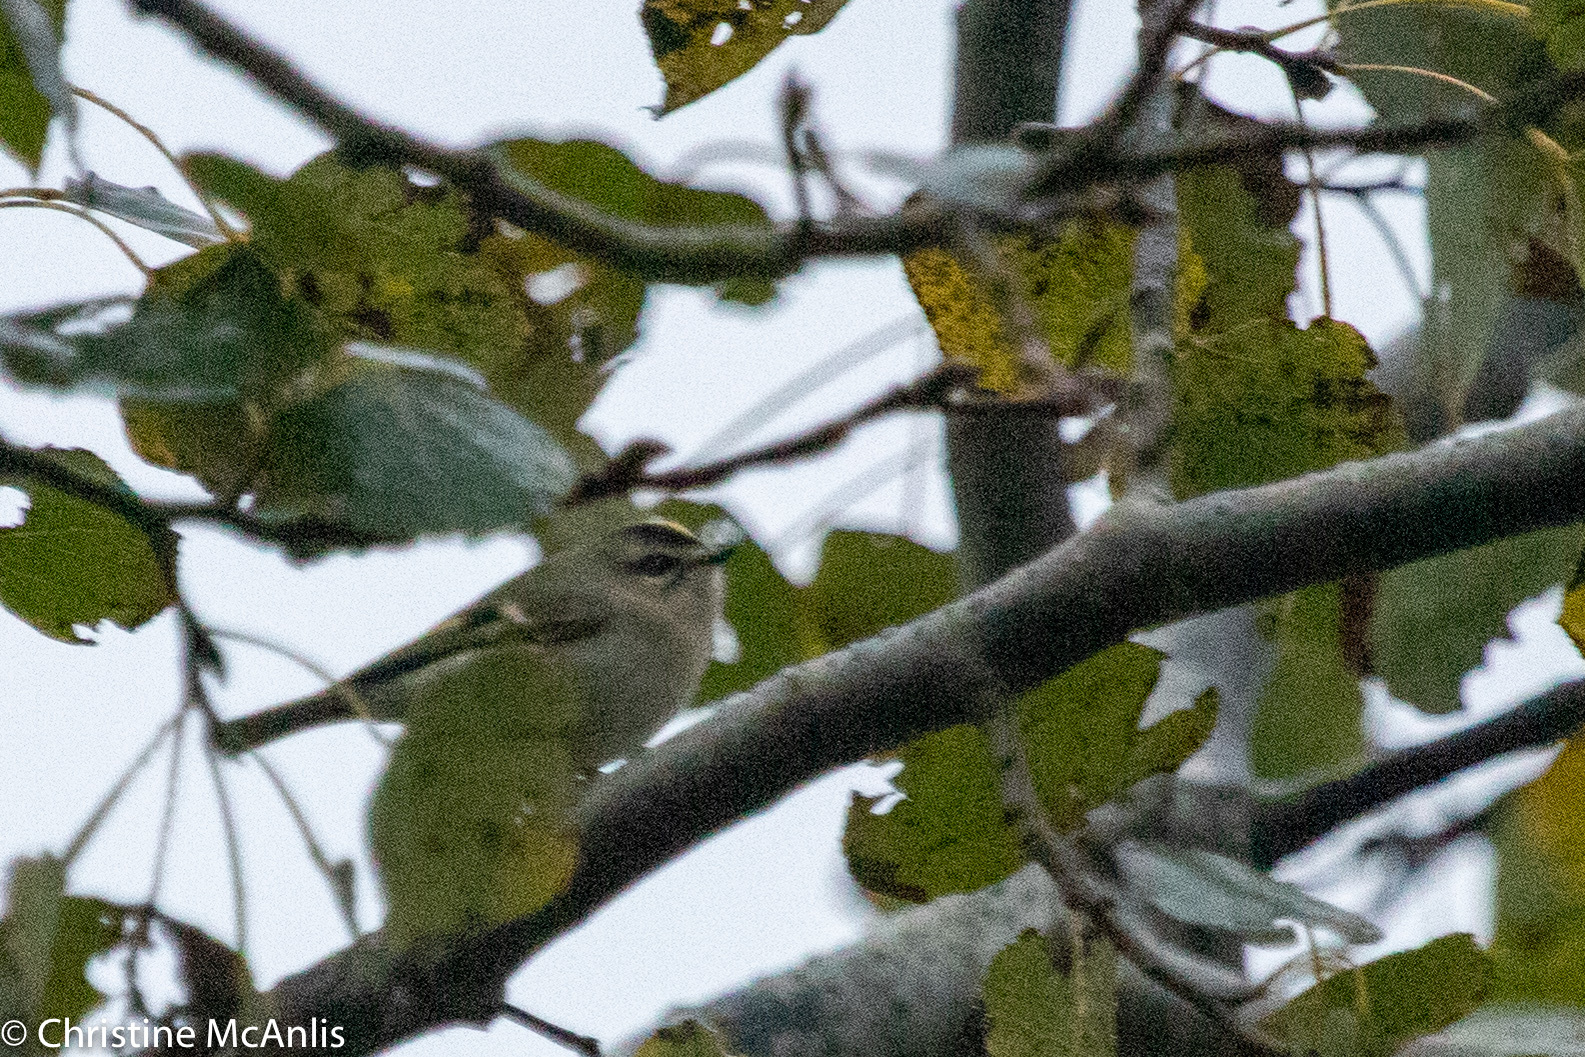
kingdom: Animalia
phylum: Chordata
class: Aves
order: Passeriformes
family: Regulidae
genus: Regulus
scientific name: Regulus satrapa
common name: Golden-crowned kinglet
